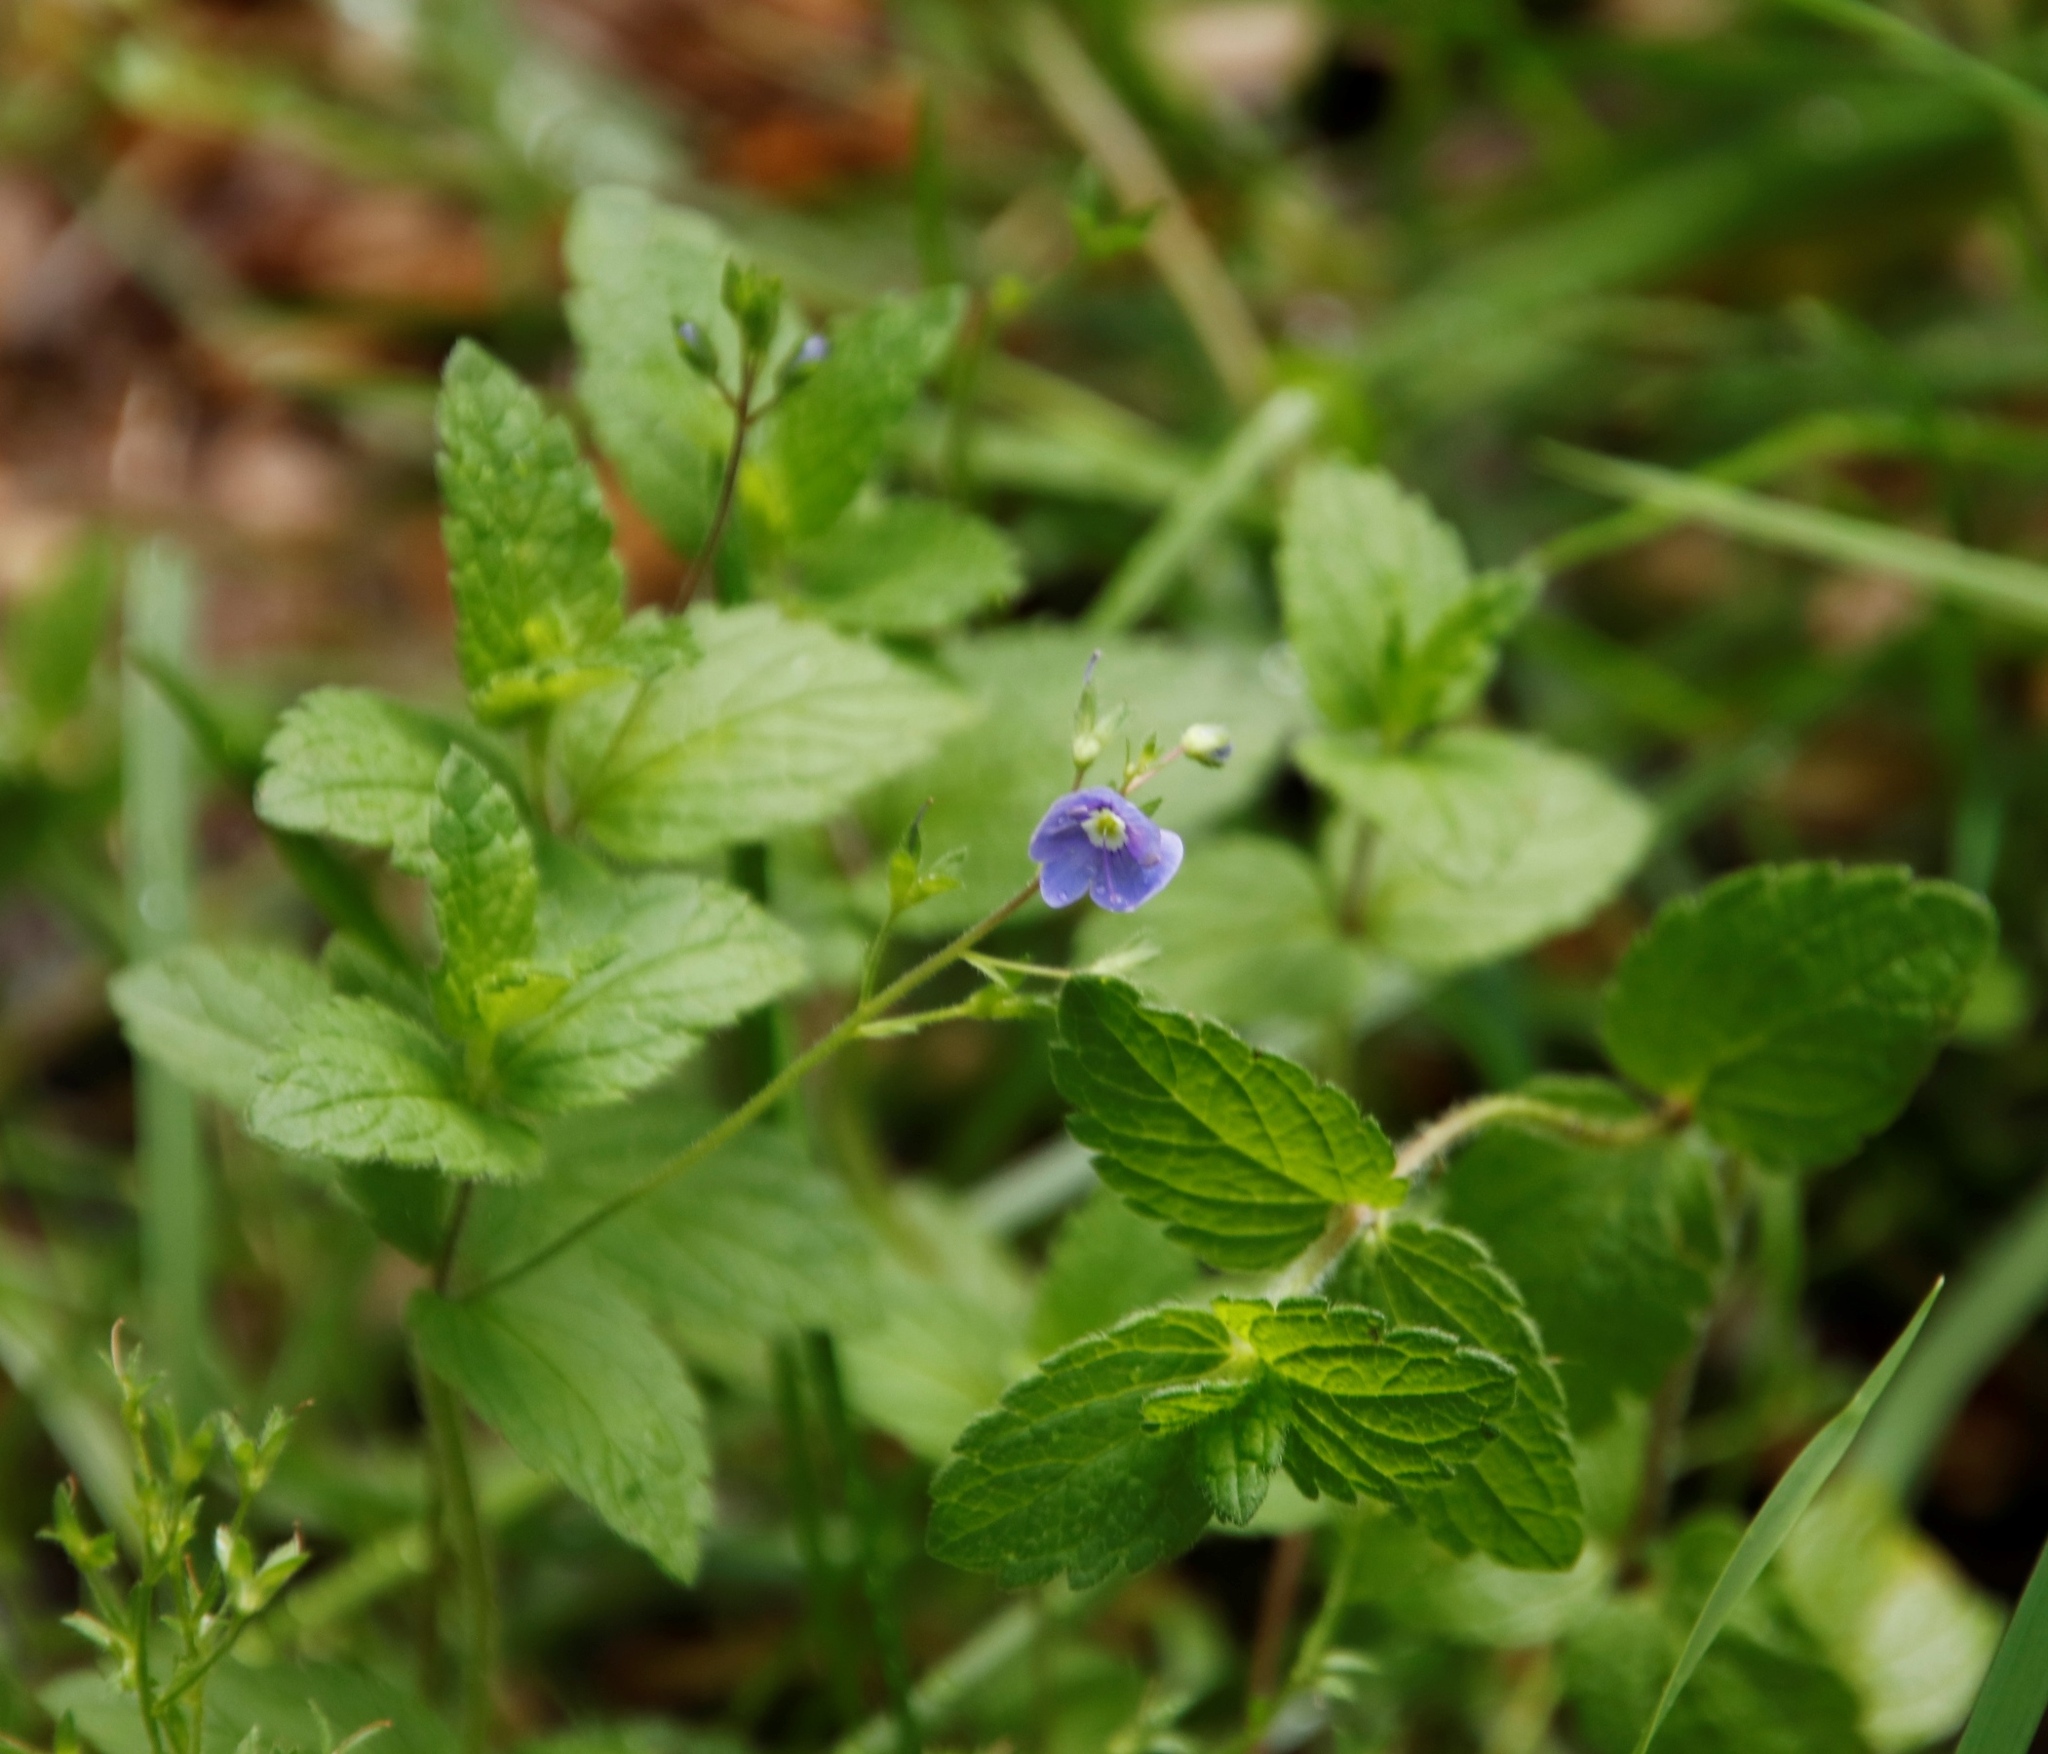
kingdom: Plantae
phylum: Tracheophyta
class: Magnoliopsida
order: Lamiales
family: Plantaginaceae
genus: Veronica
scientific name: Veronica chamaedrys
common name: Germander speedwell
